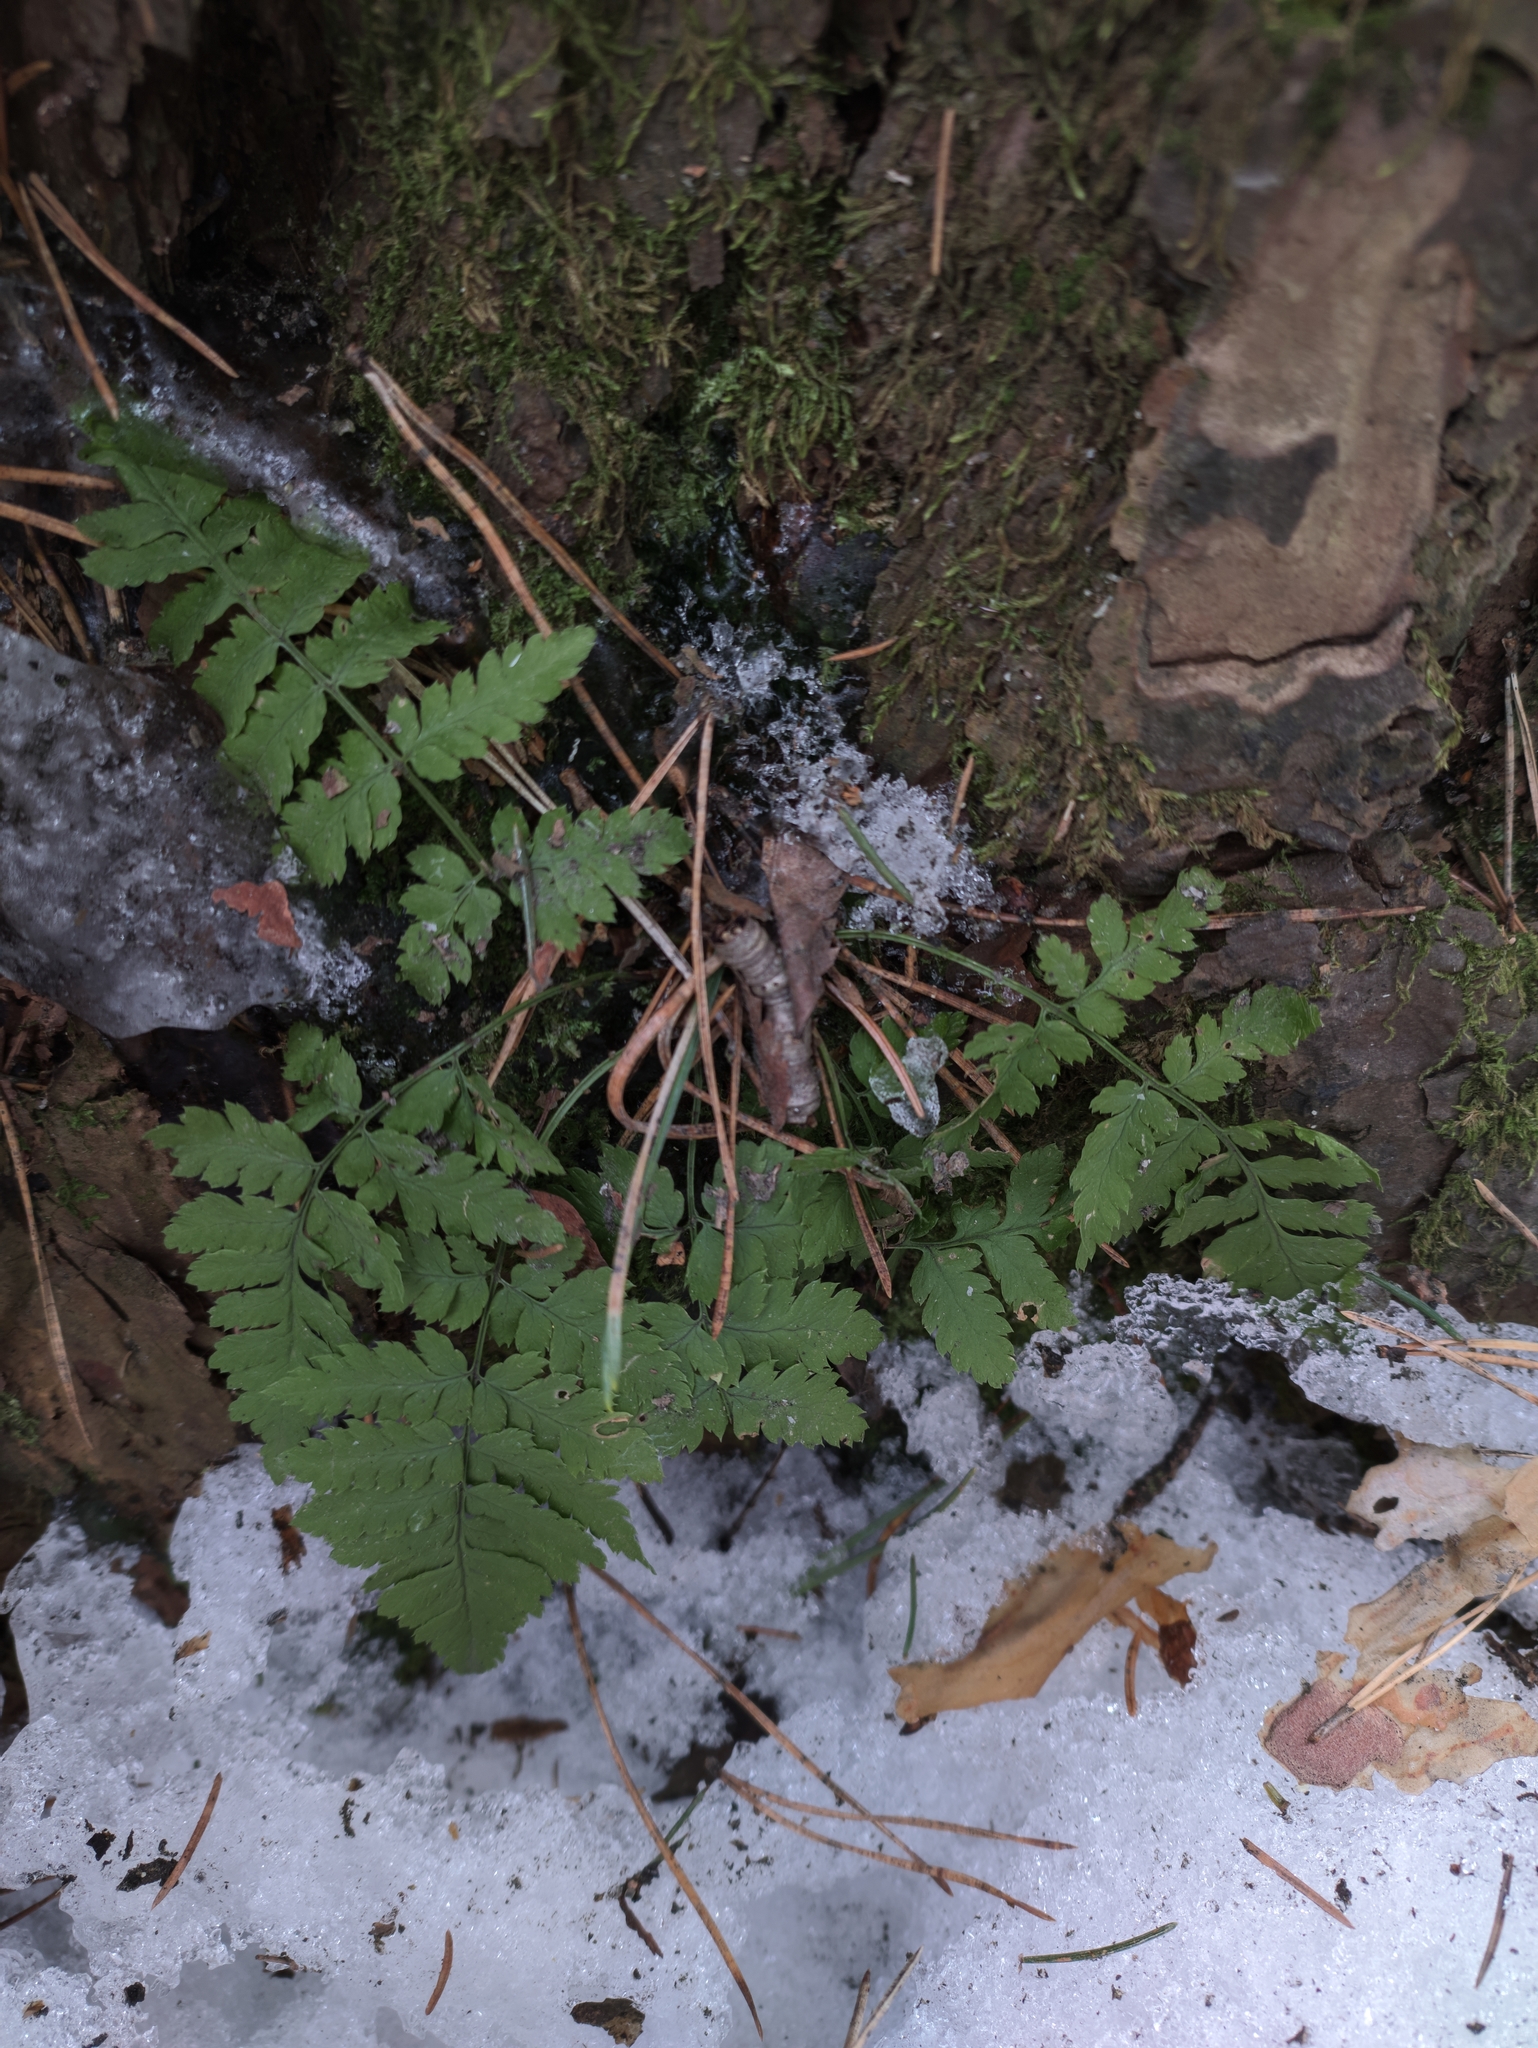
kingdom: Plantae
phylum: Tracheophyta
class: Polypodiopsida
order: Polypodiales
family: Dryopteridaceae
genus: Dryopteris
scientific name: Dryopteris carthusiana
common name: Narrow buckler-fern
